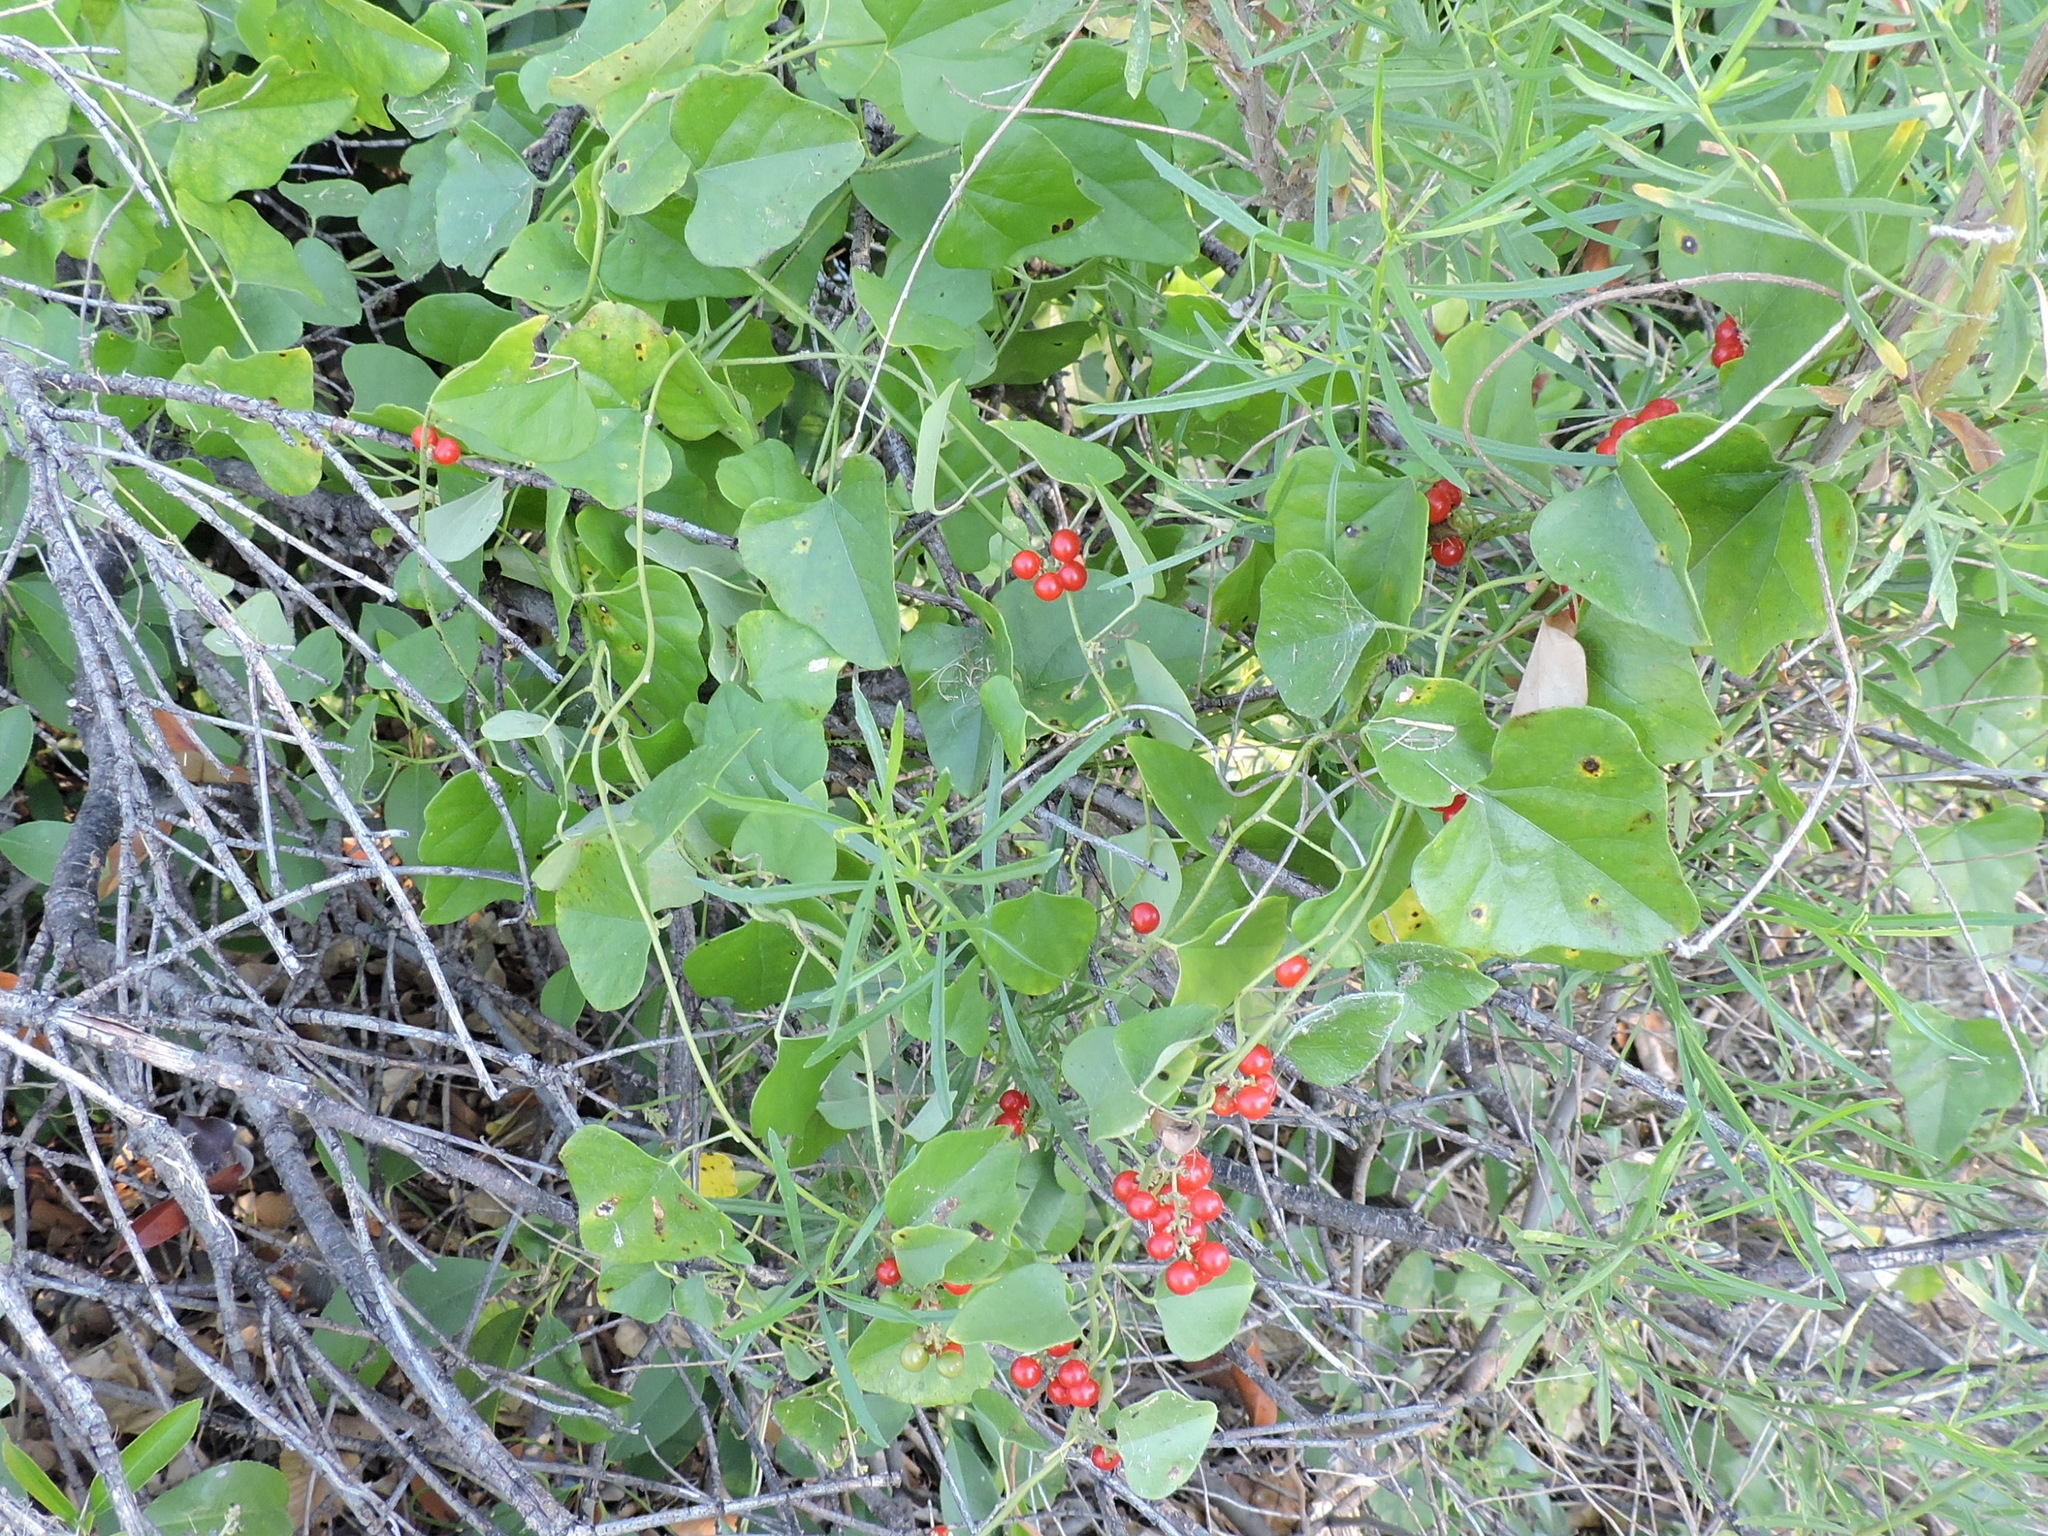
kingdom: Plantae
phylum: Tracheophyta
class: Magnoliopsida
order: Ranunculales
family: Menispermaceae
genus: Cocculus
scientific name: Cocculus carolinus
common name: Carolina moonseed
